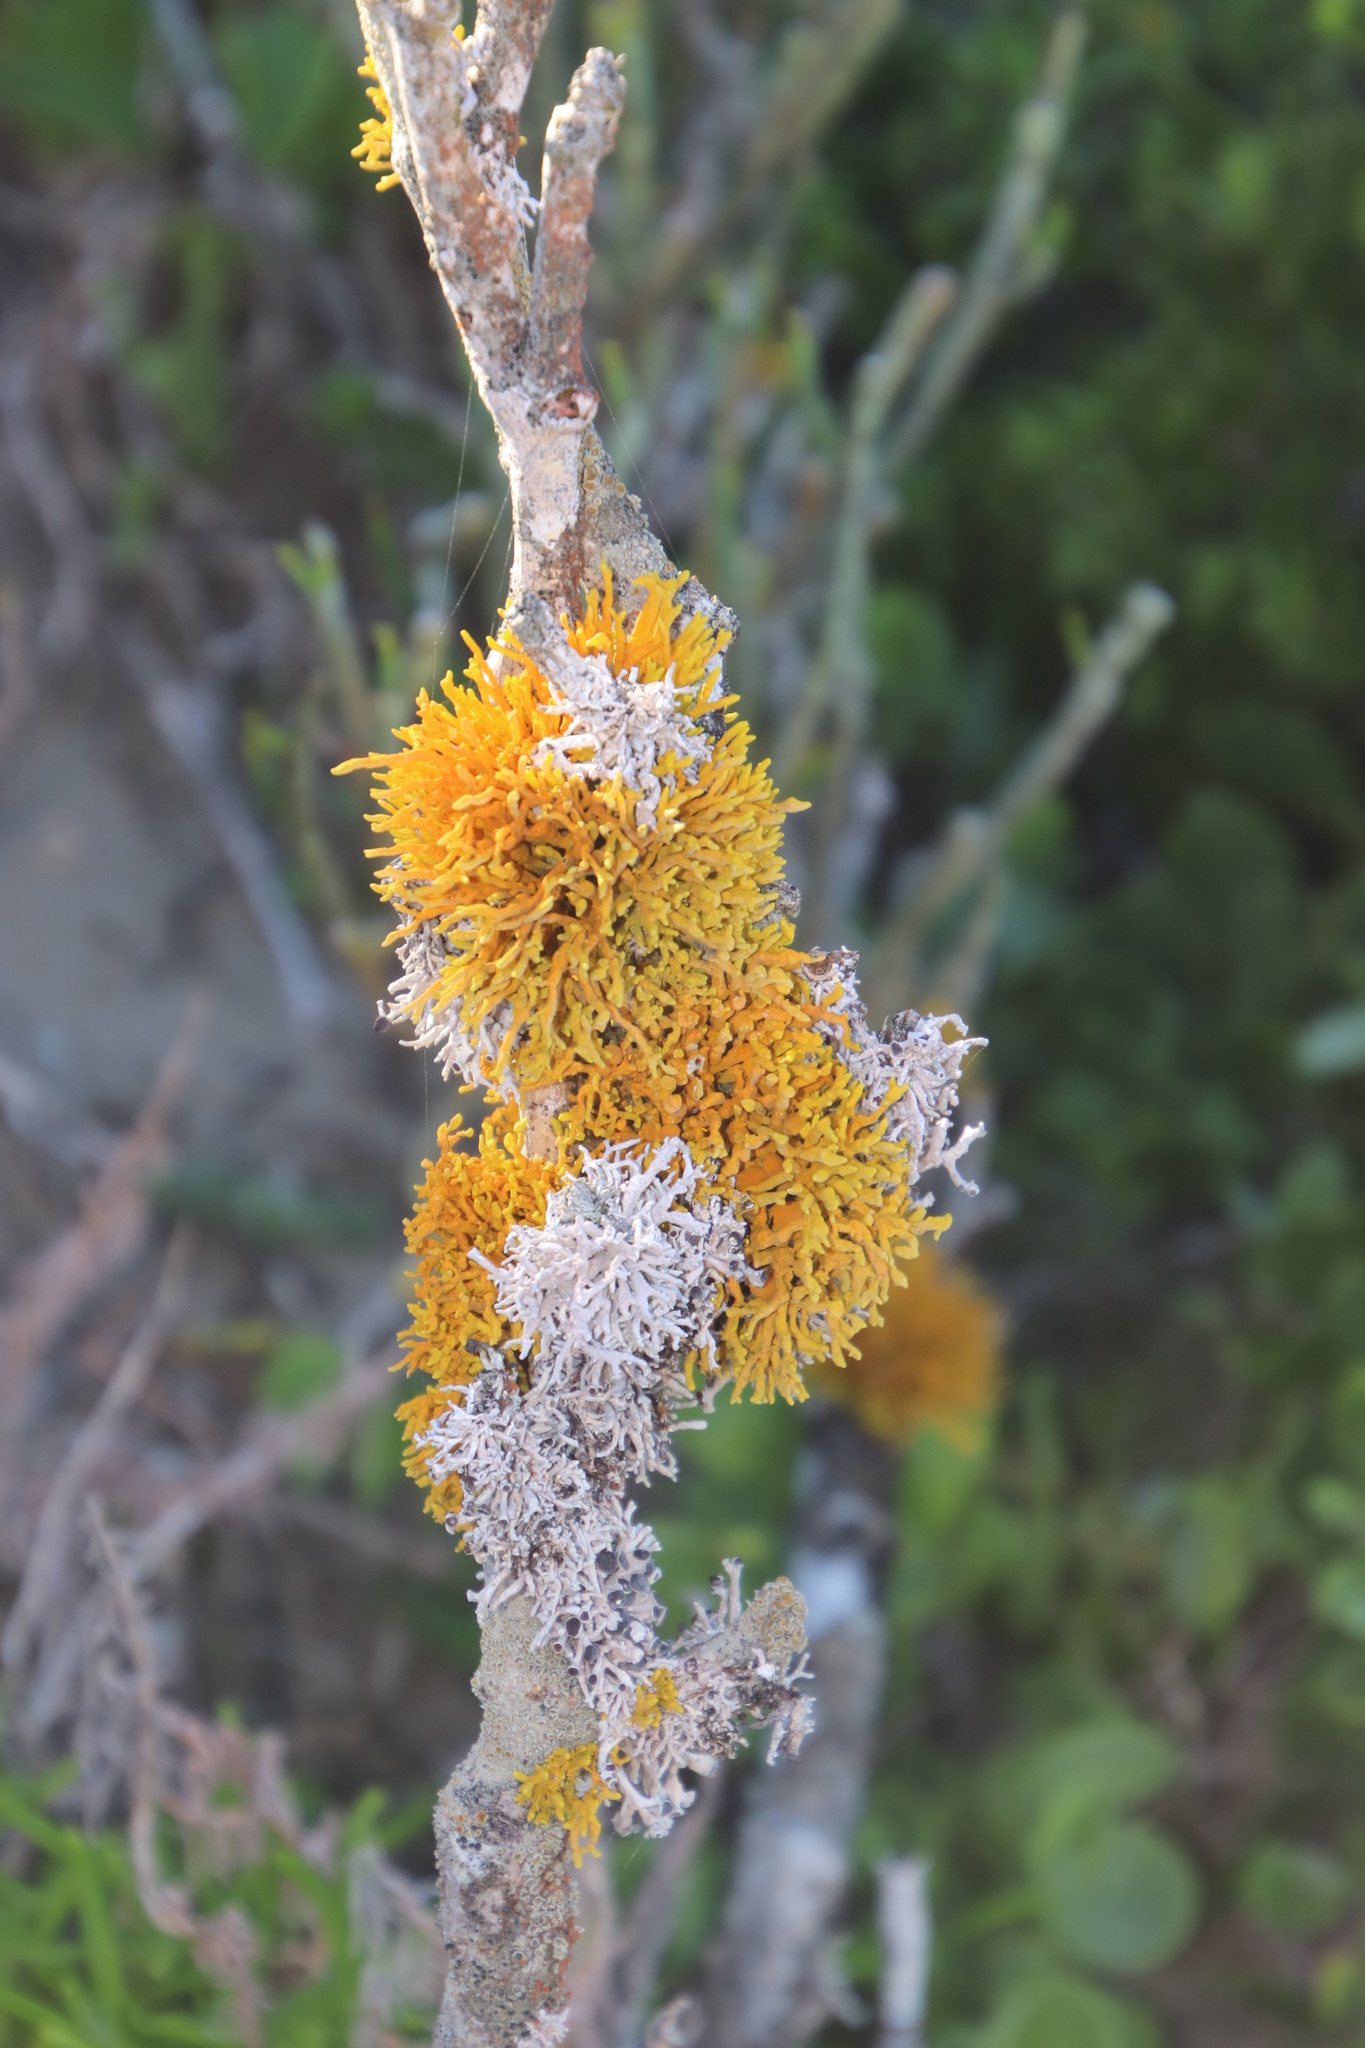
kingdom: Fungi
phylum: Ascomycota
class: Lecanoromycetes
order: Teloschistales
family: Teloschistaceae
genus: Dufourea
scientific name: Dufourea flammea
